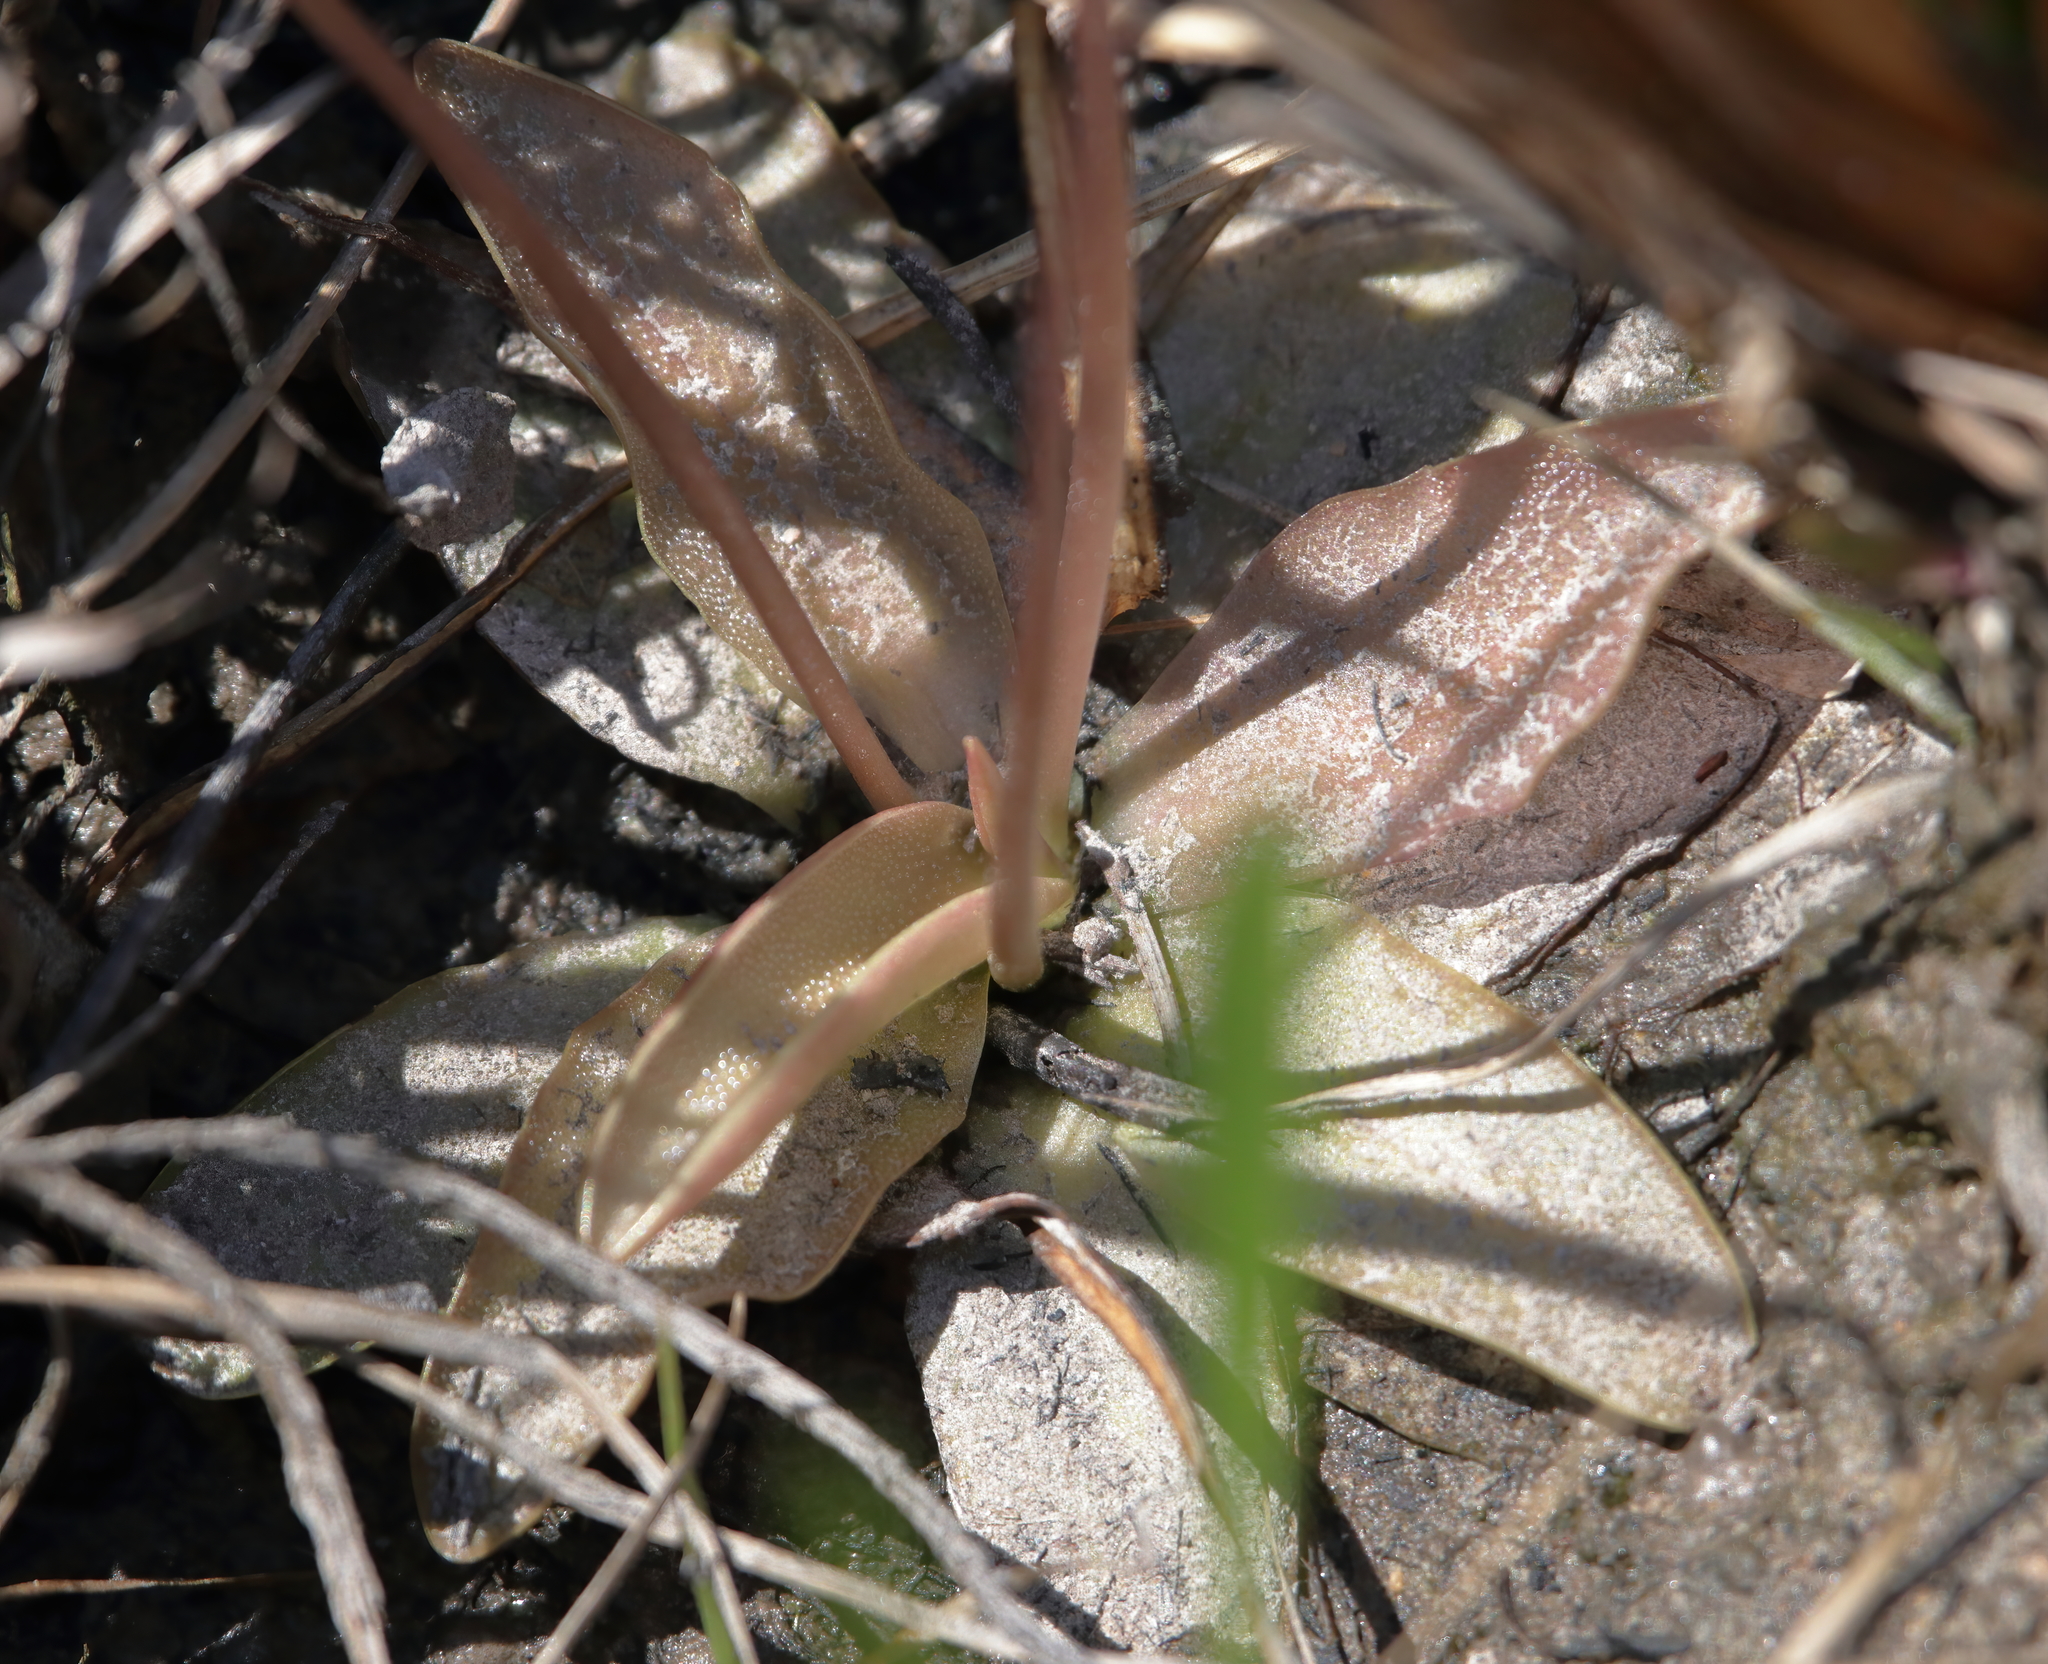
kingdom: Plantae
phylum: Tracheophyta
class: Magnoliopsida
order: Lamiales
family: Lentibulariaceae
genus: Pinguicula
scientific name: Pinguicula planifolia
